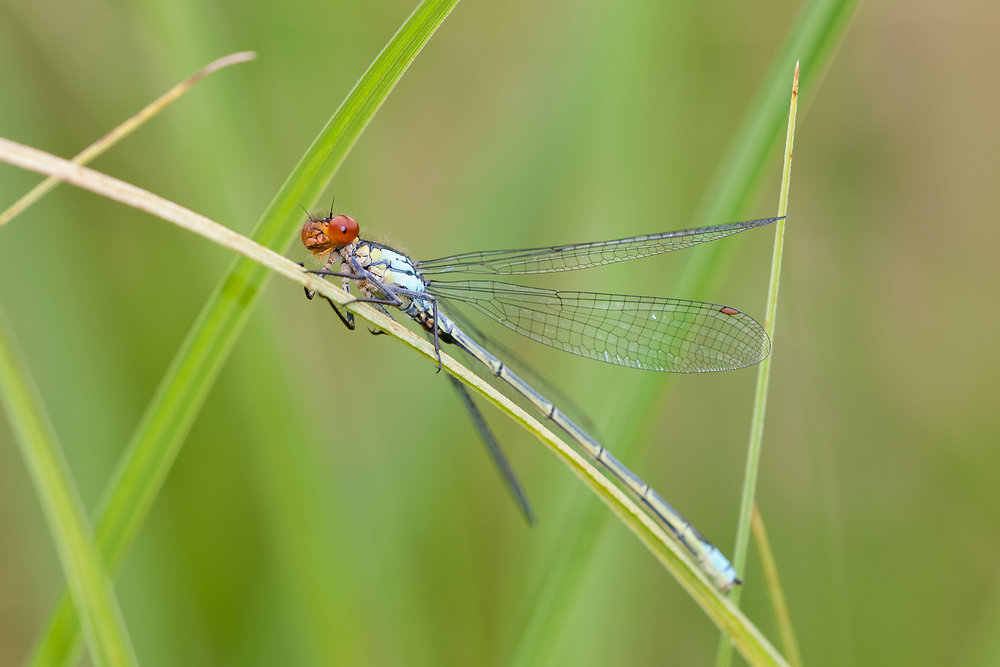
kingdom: Animalia
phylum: Arthropoda
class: Insecta
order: Odonata
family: Coenagrionidae
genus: Erythromma
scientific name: Erythromma najas
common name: Red-eyed damselfly
